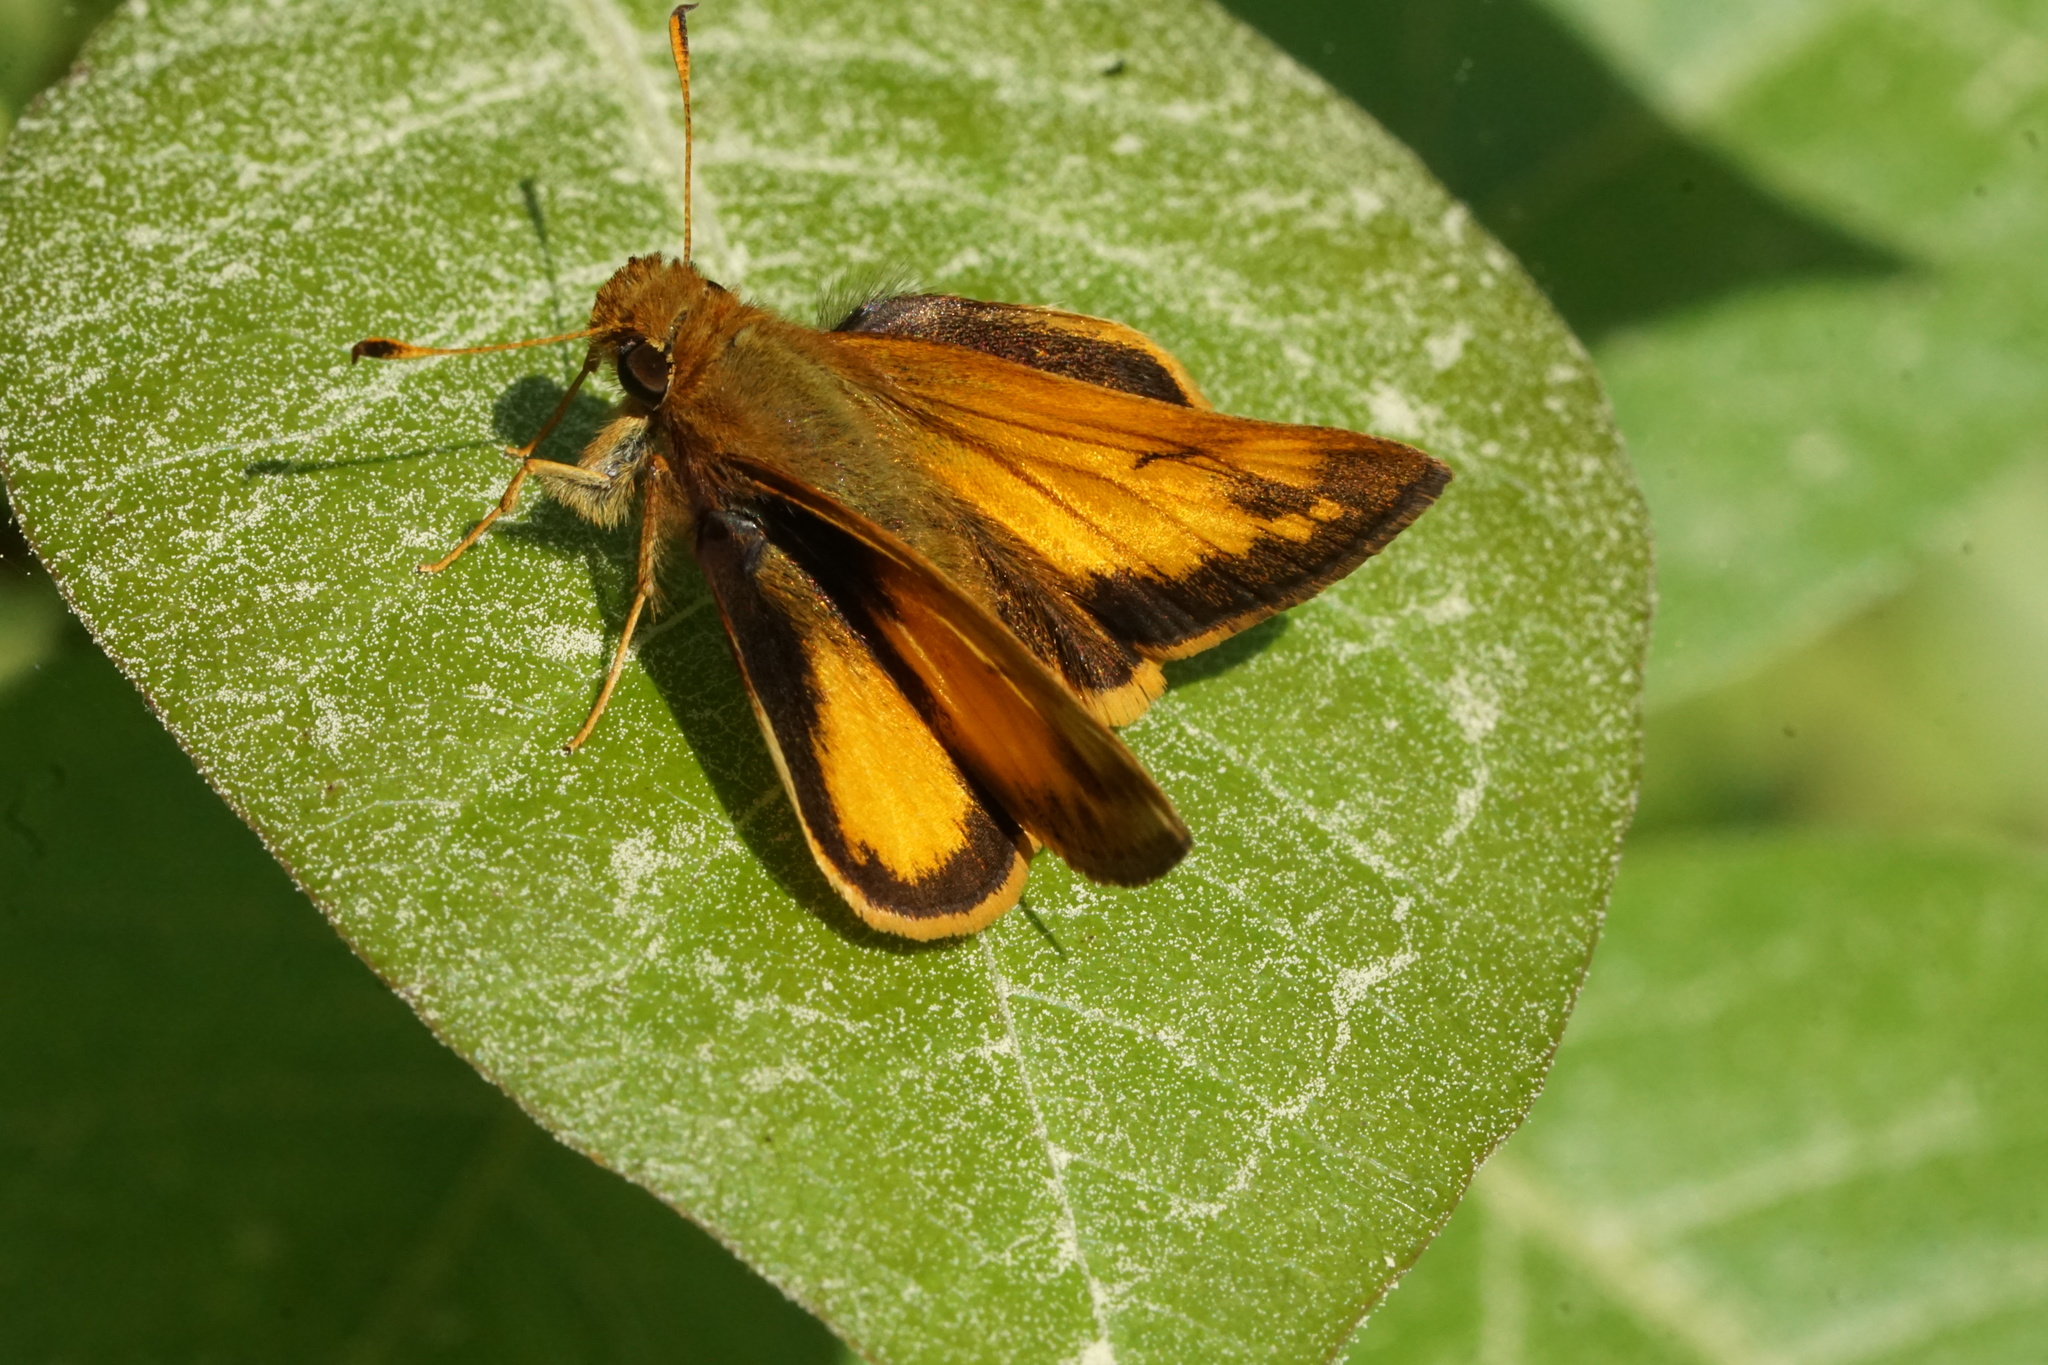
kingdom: Animalia
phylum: Arthropoda
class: Insecta
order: Lepidoptera
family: Hesperiidae
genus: Lon
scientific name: Lon zabulon
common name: Zabulon skipper
